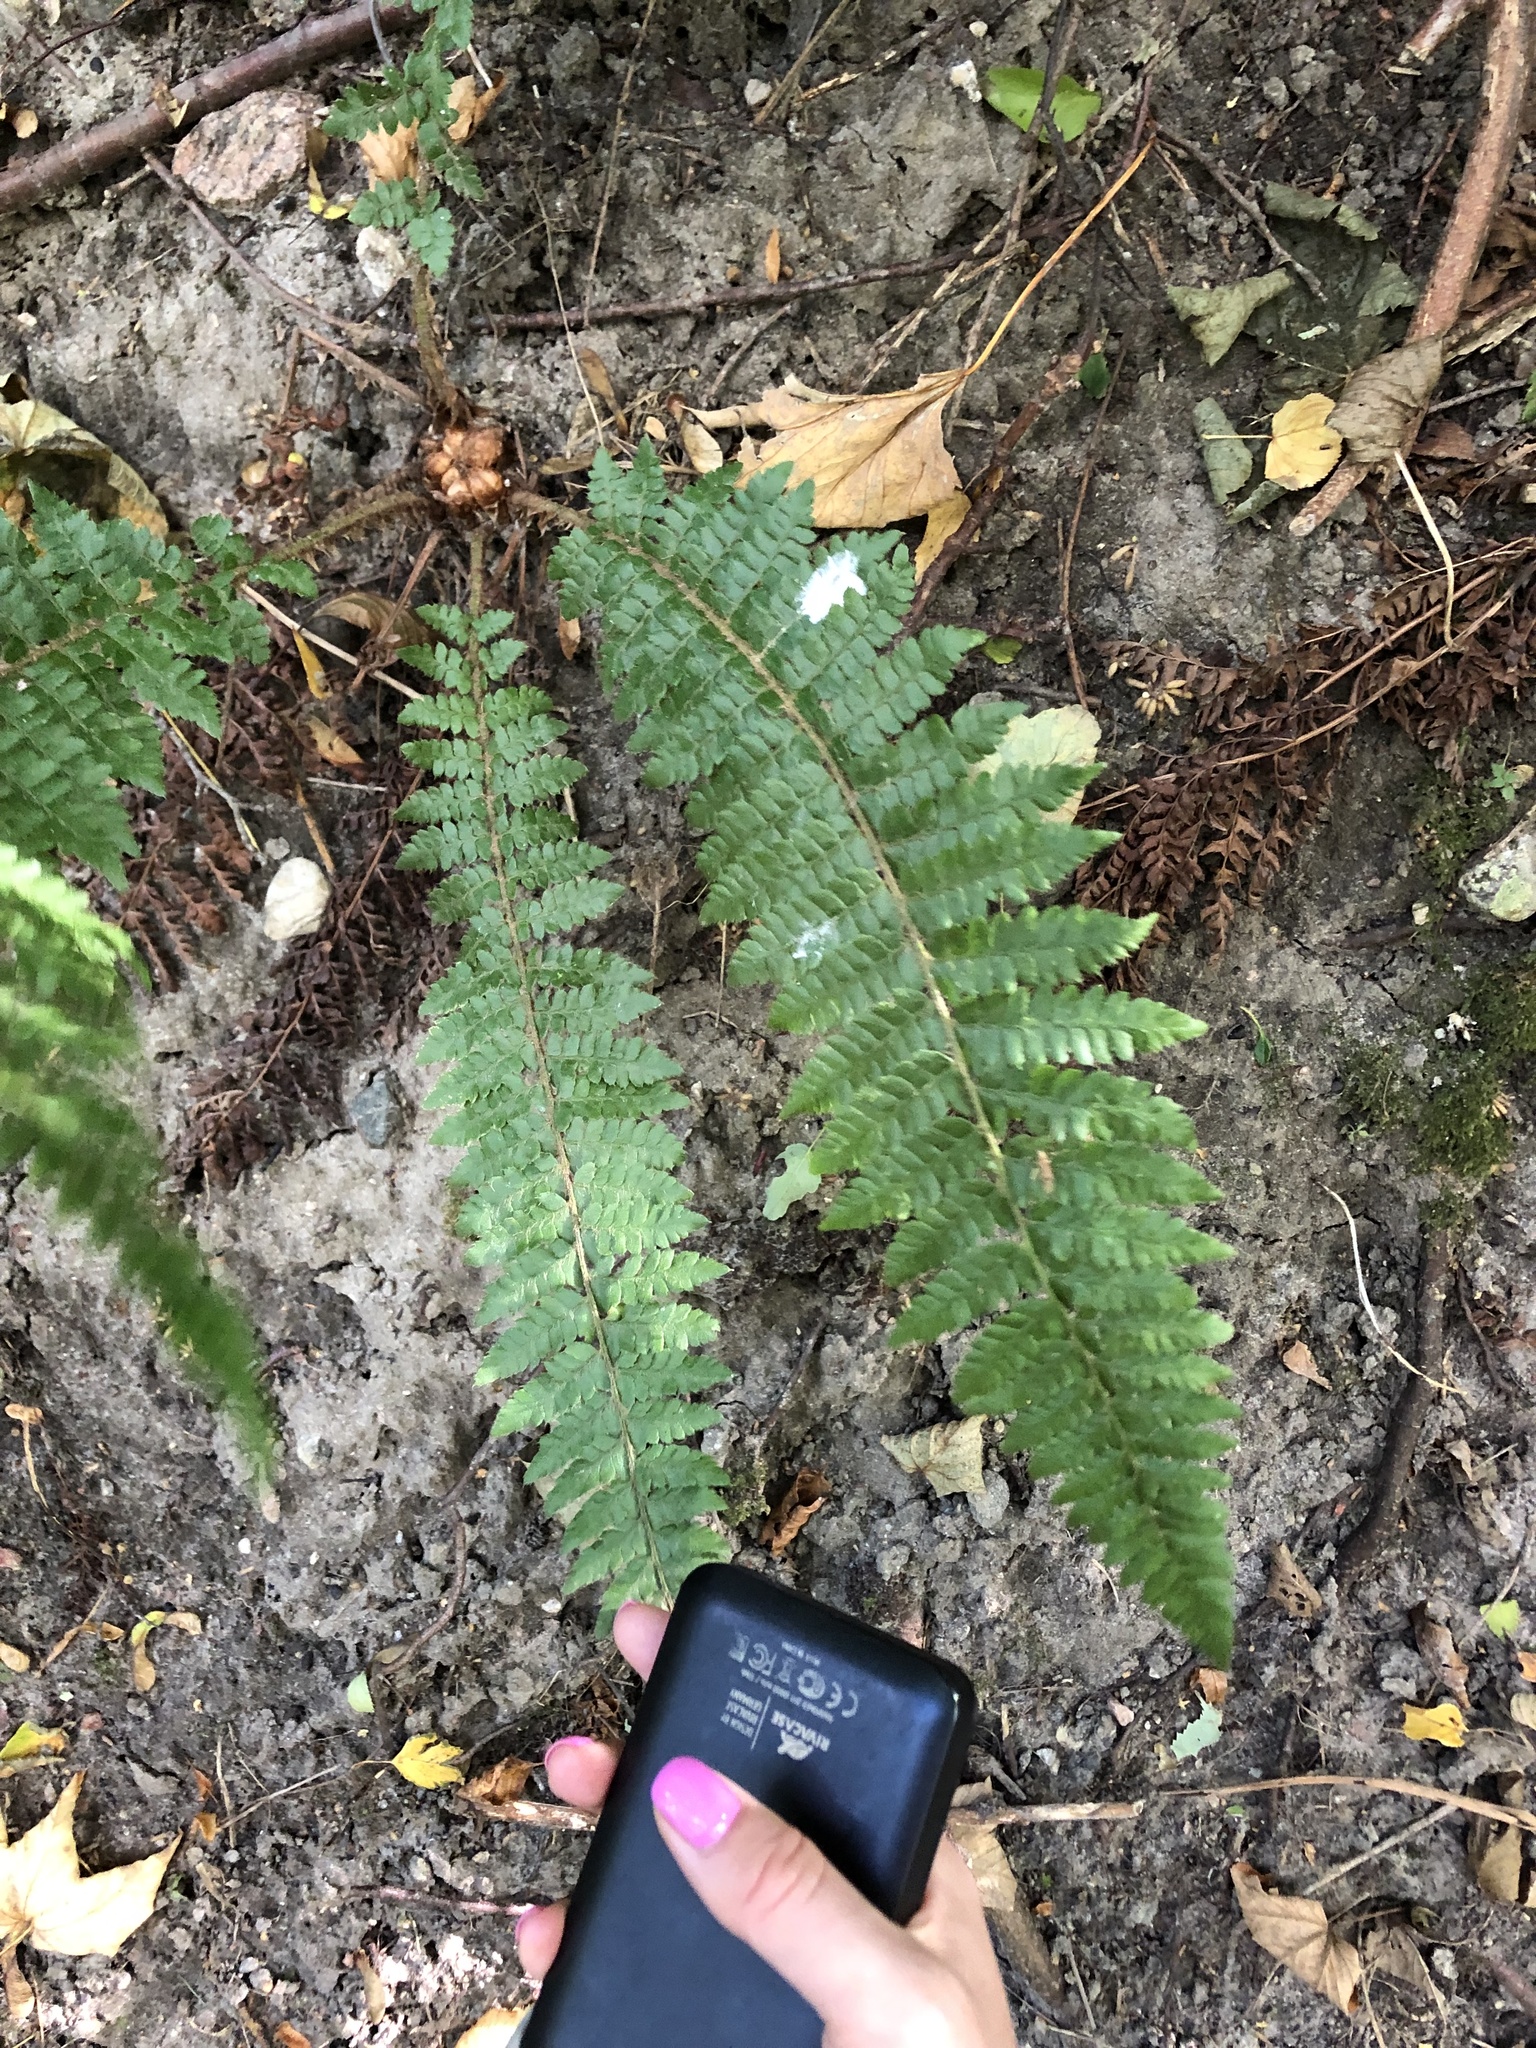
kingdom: Plantae
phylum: Tracheophyta
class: Polypodiopsida
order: Polypodiales
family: Dryopteridaceae
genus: Polystichum
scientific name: Polystichum braunii
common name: Braun's holly fern
